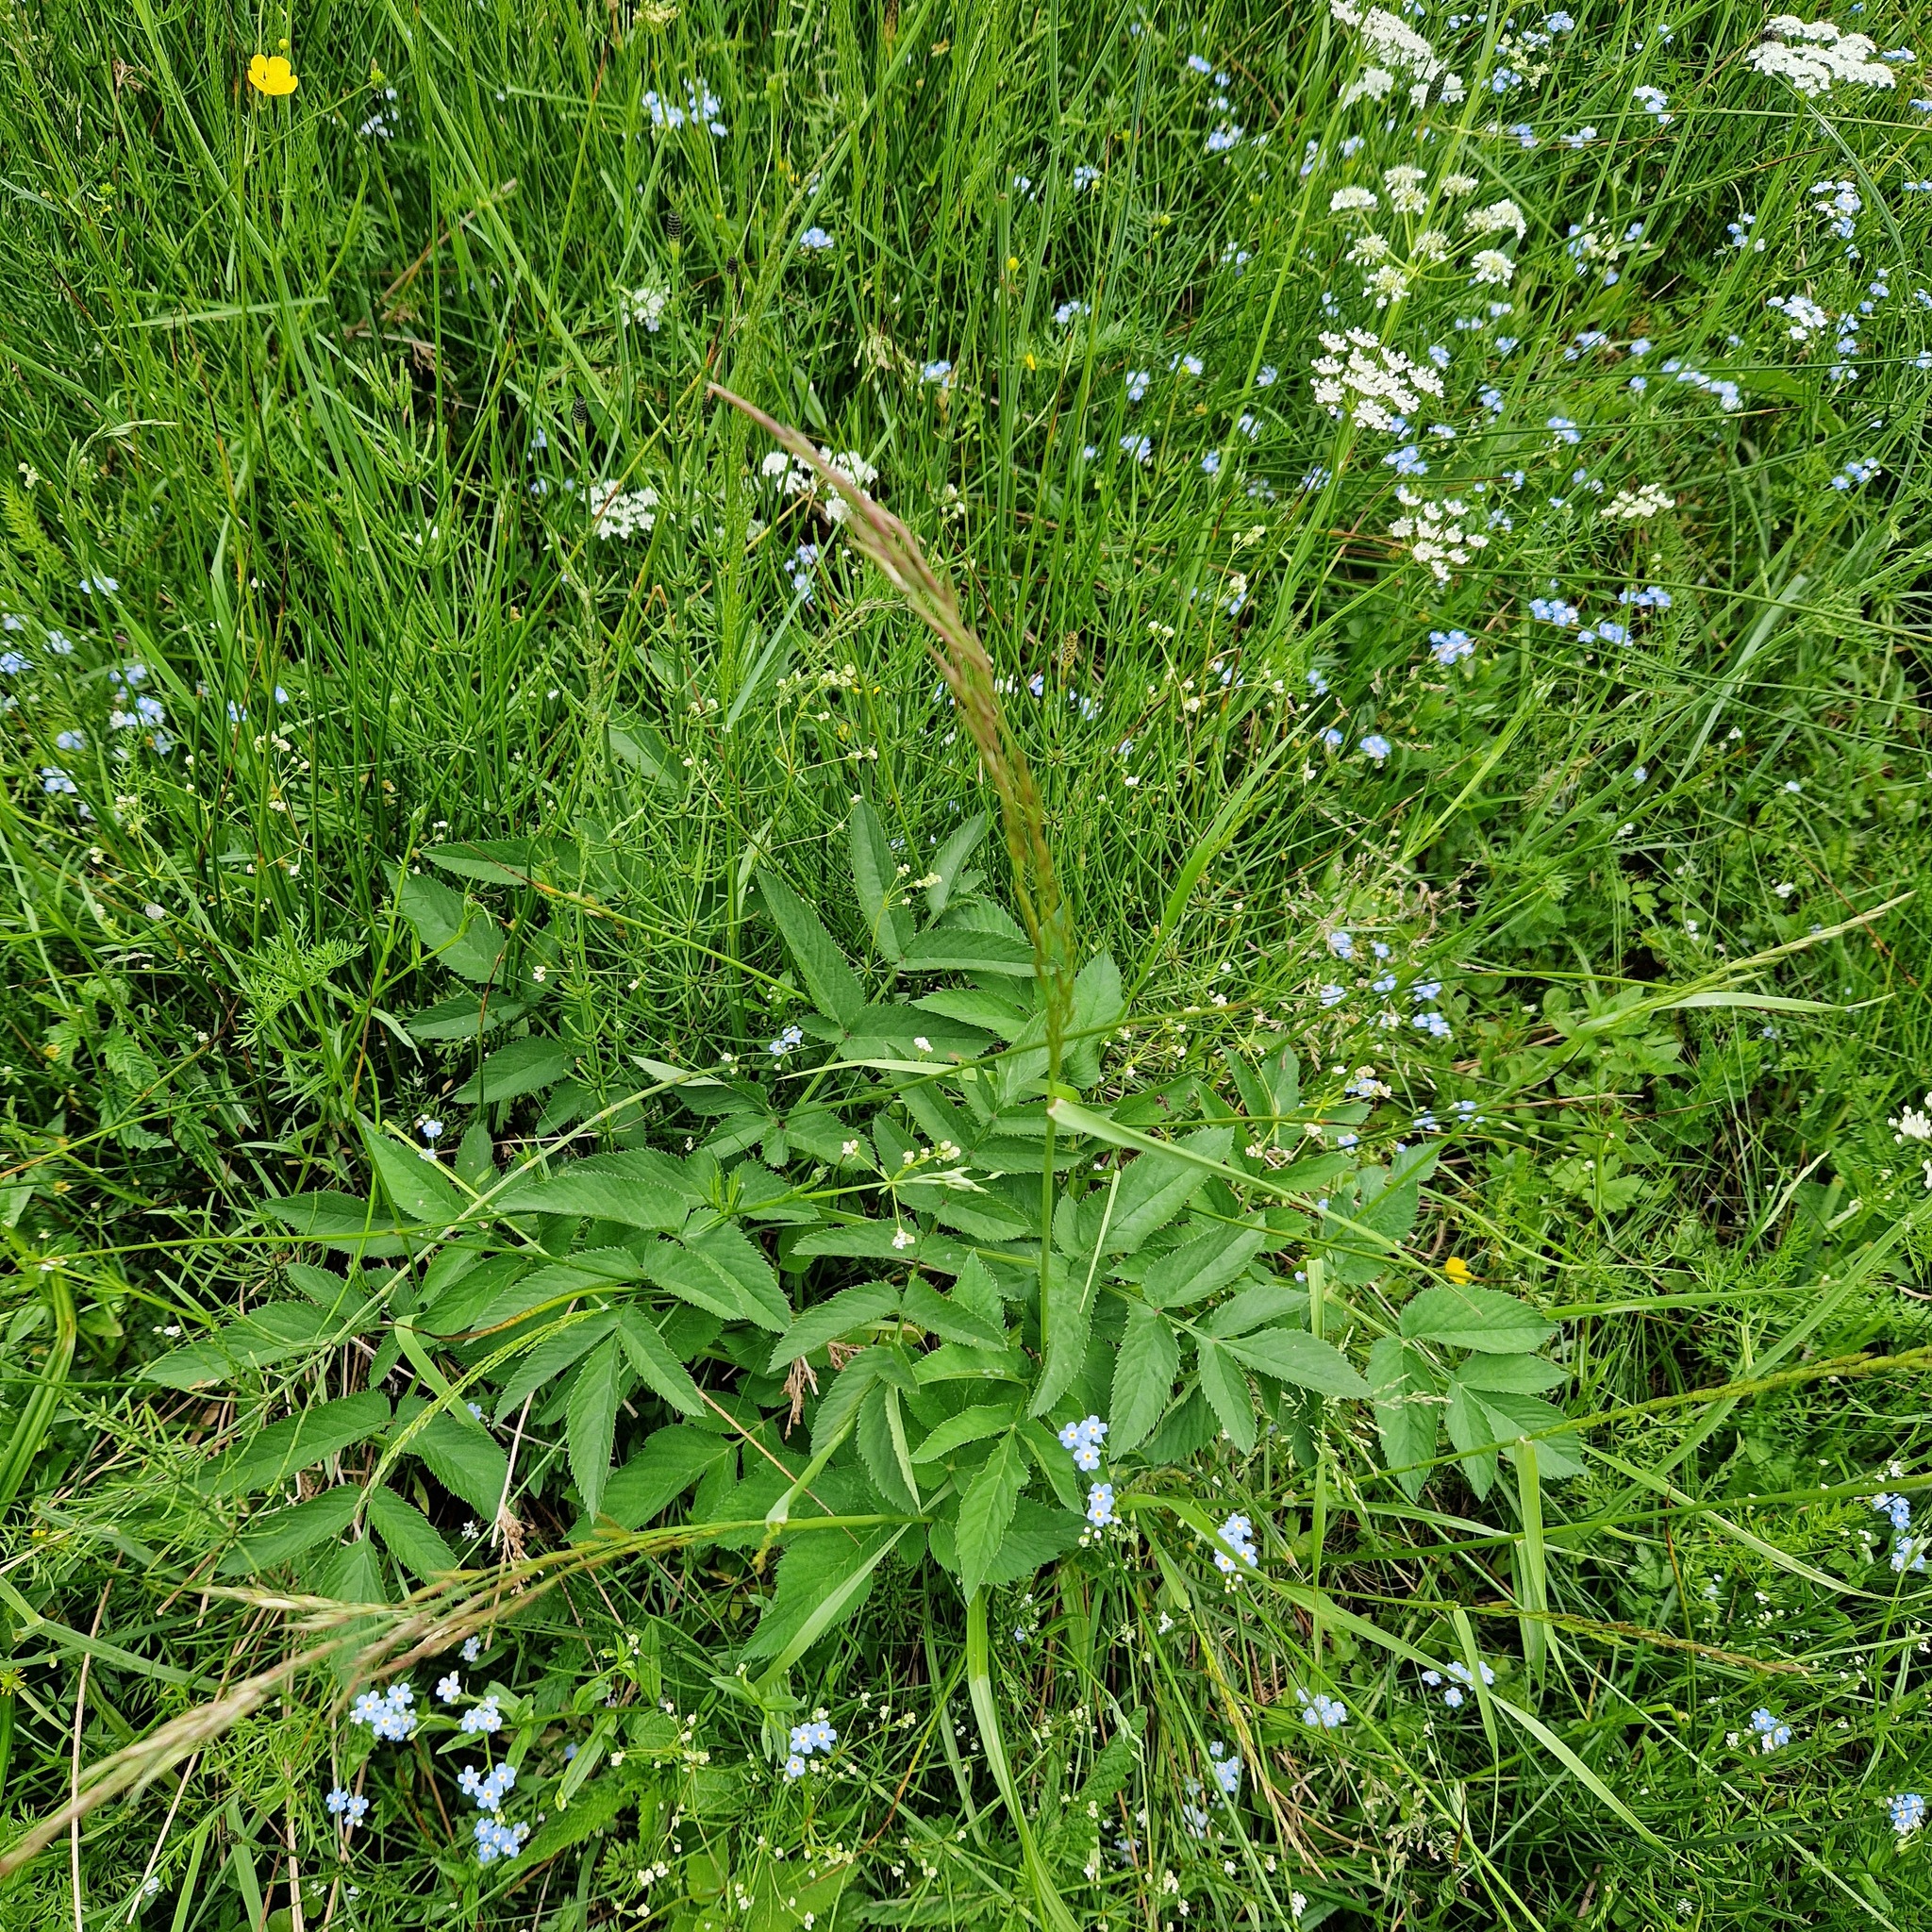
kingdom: Plantae
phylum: Tracheophyta
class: Magnoliopsida
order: Apiales
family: Apiaceae
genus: Angelica
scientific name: Angelica sylvestris
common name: Wild angelica
